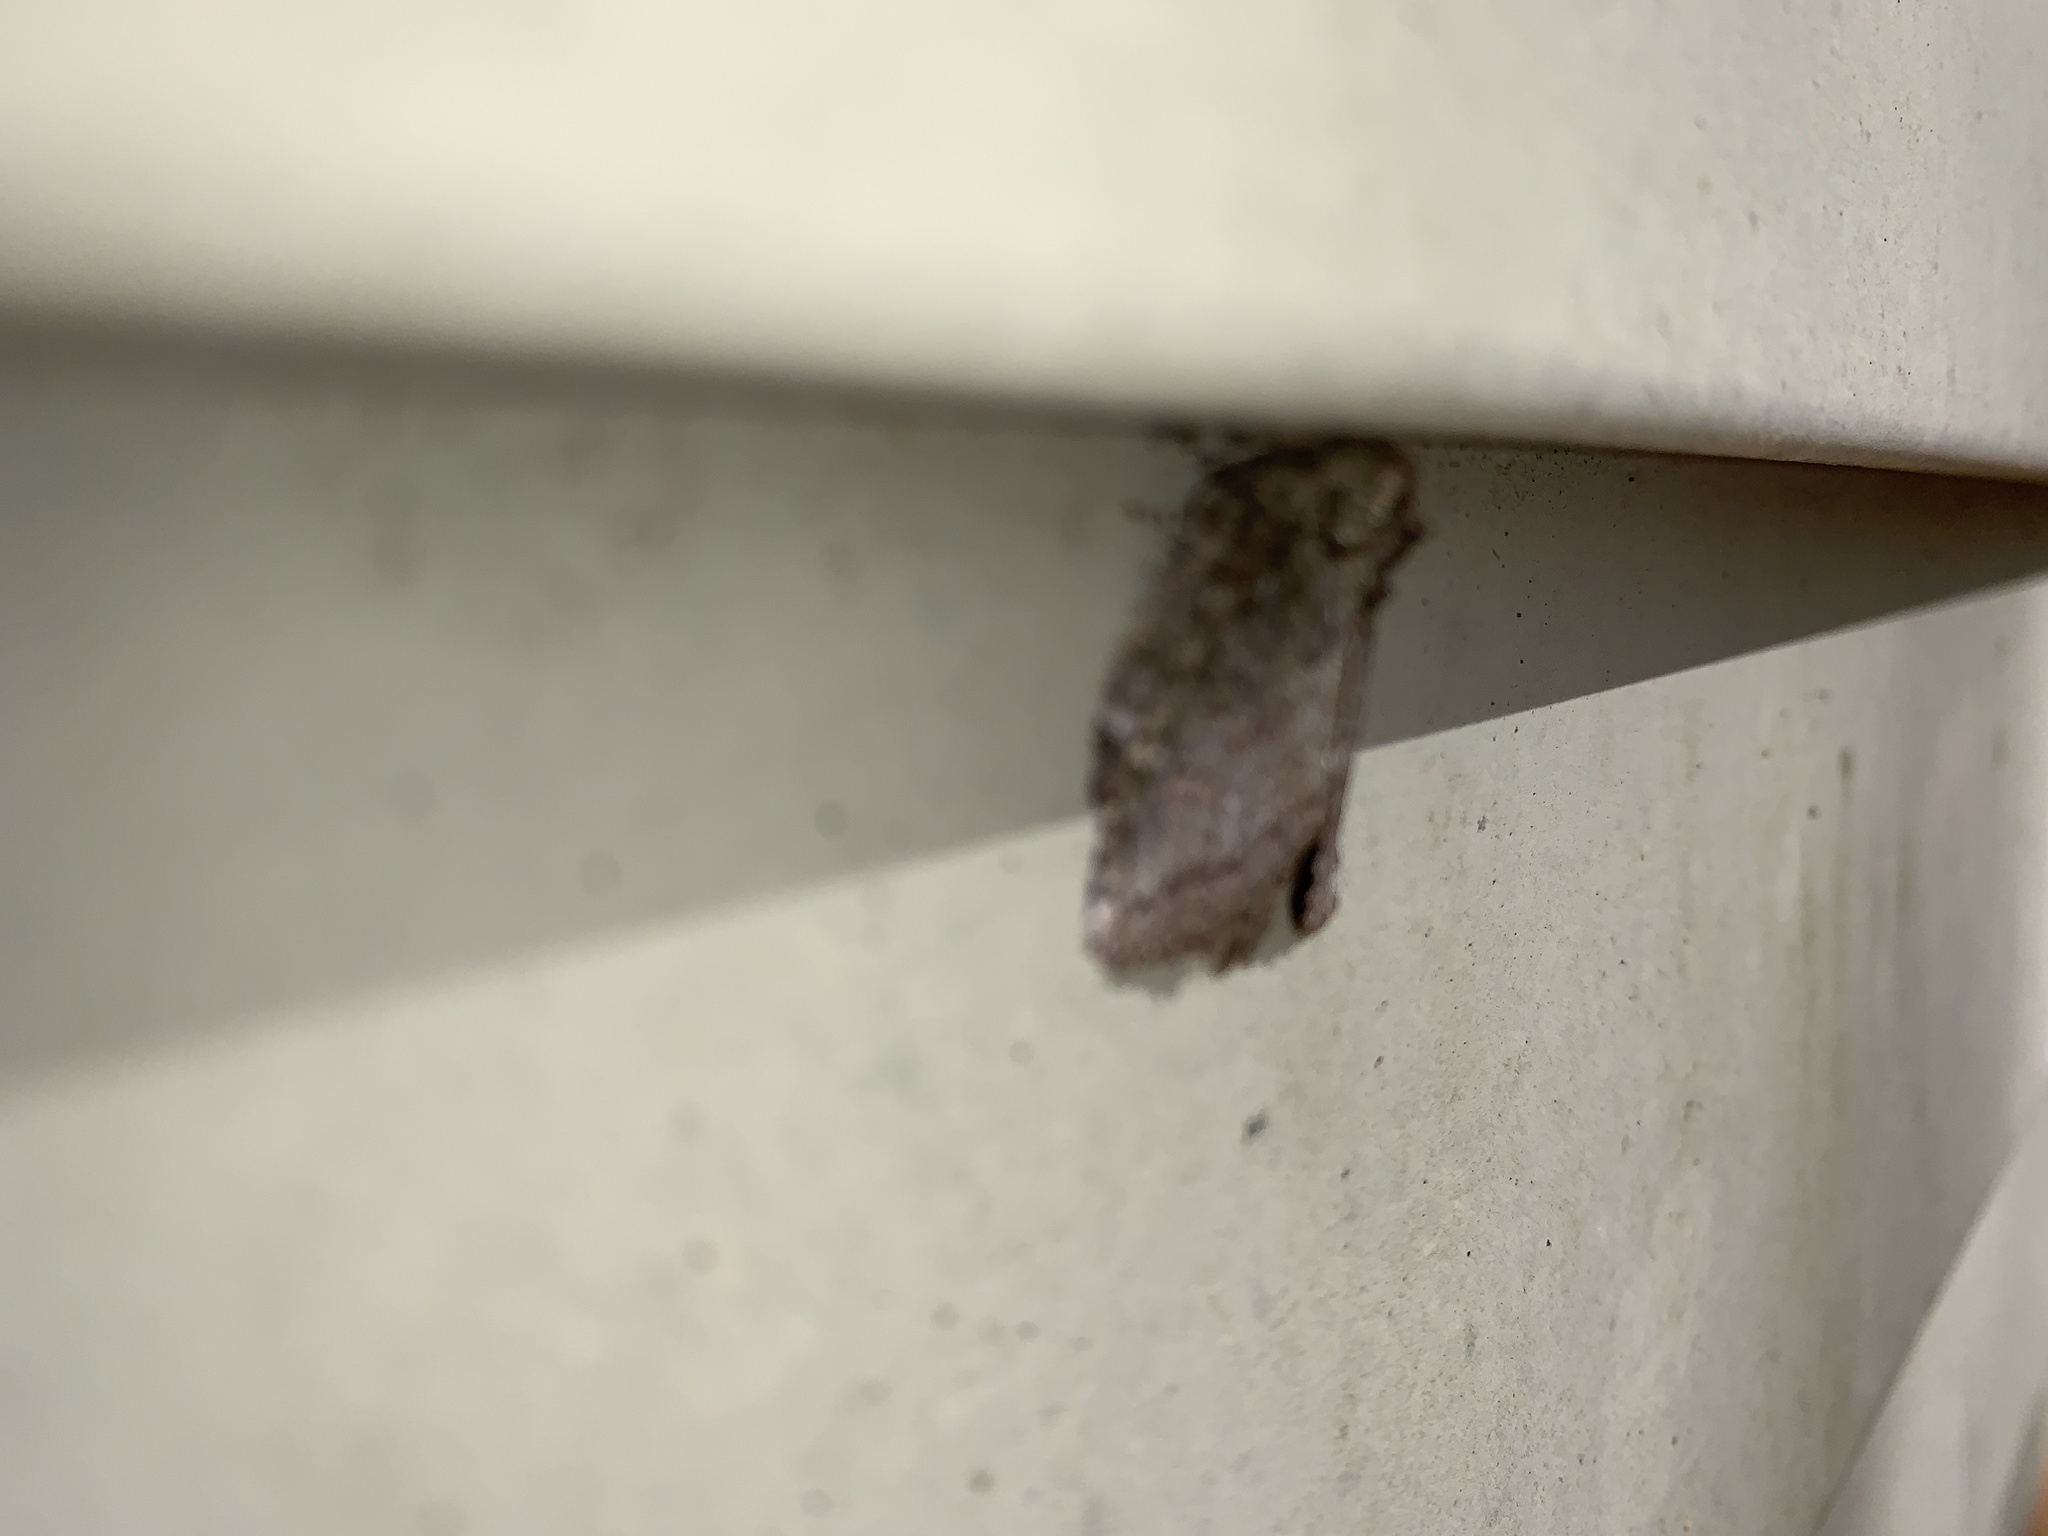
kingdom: Animalia
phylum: Arthropoda
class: Insecta
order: Lepidoptera
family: Notodontidae
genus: Disphragis
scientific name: Disphragis Cecrita guttivitta
